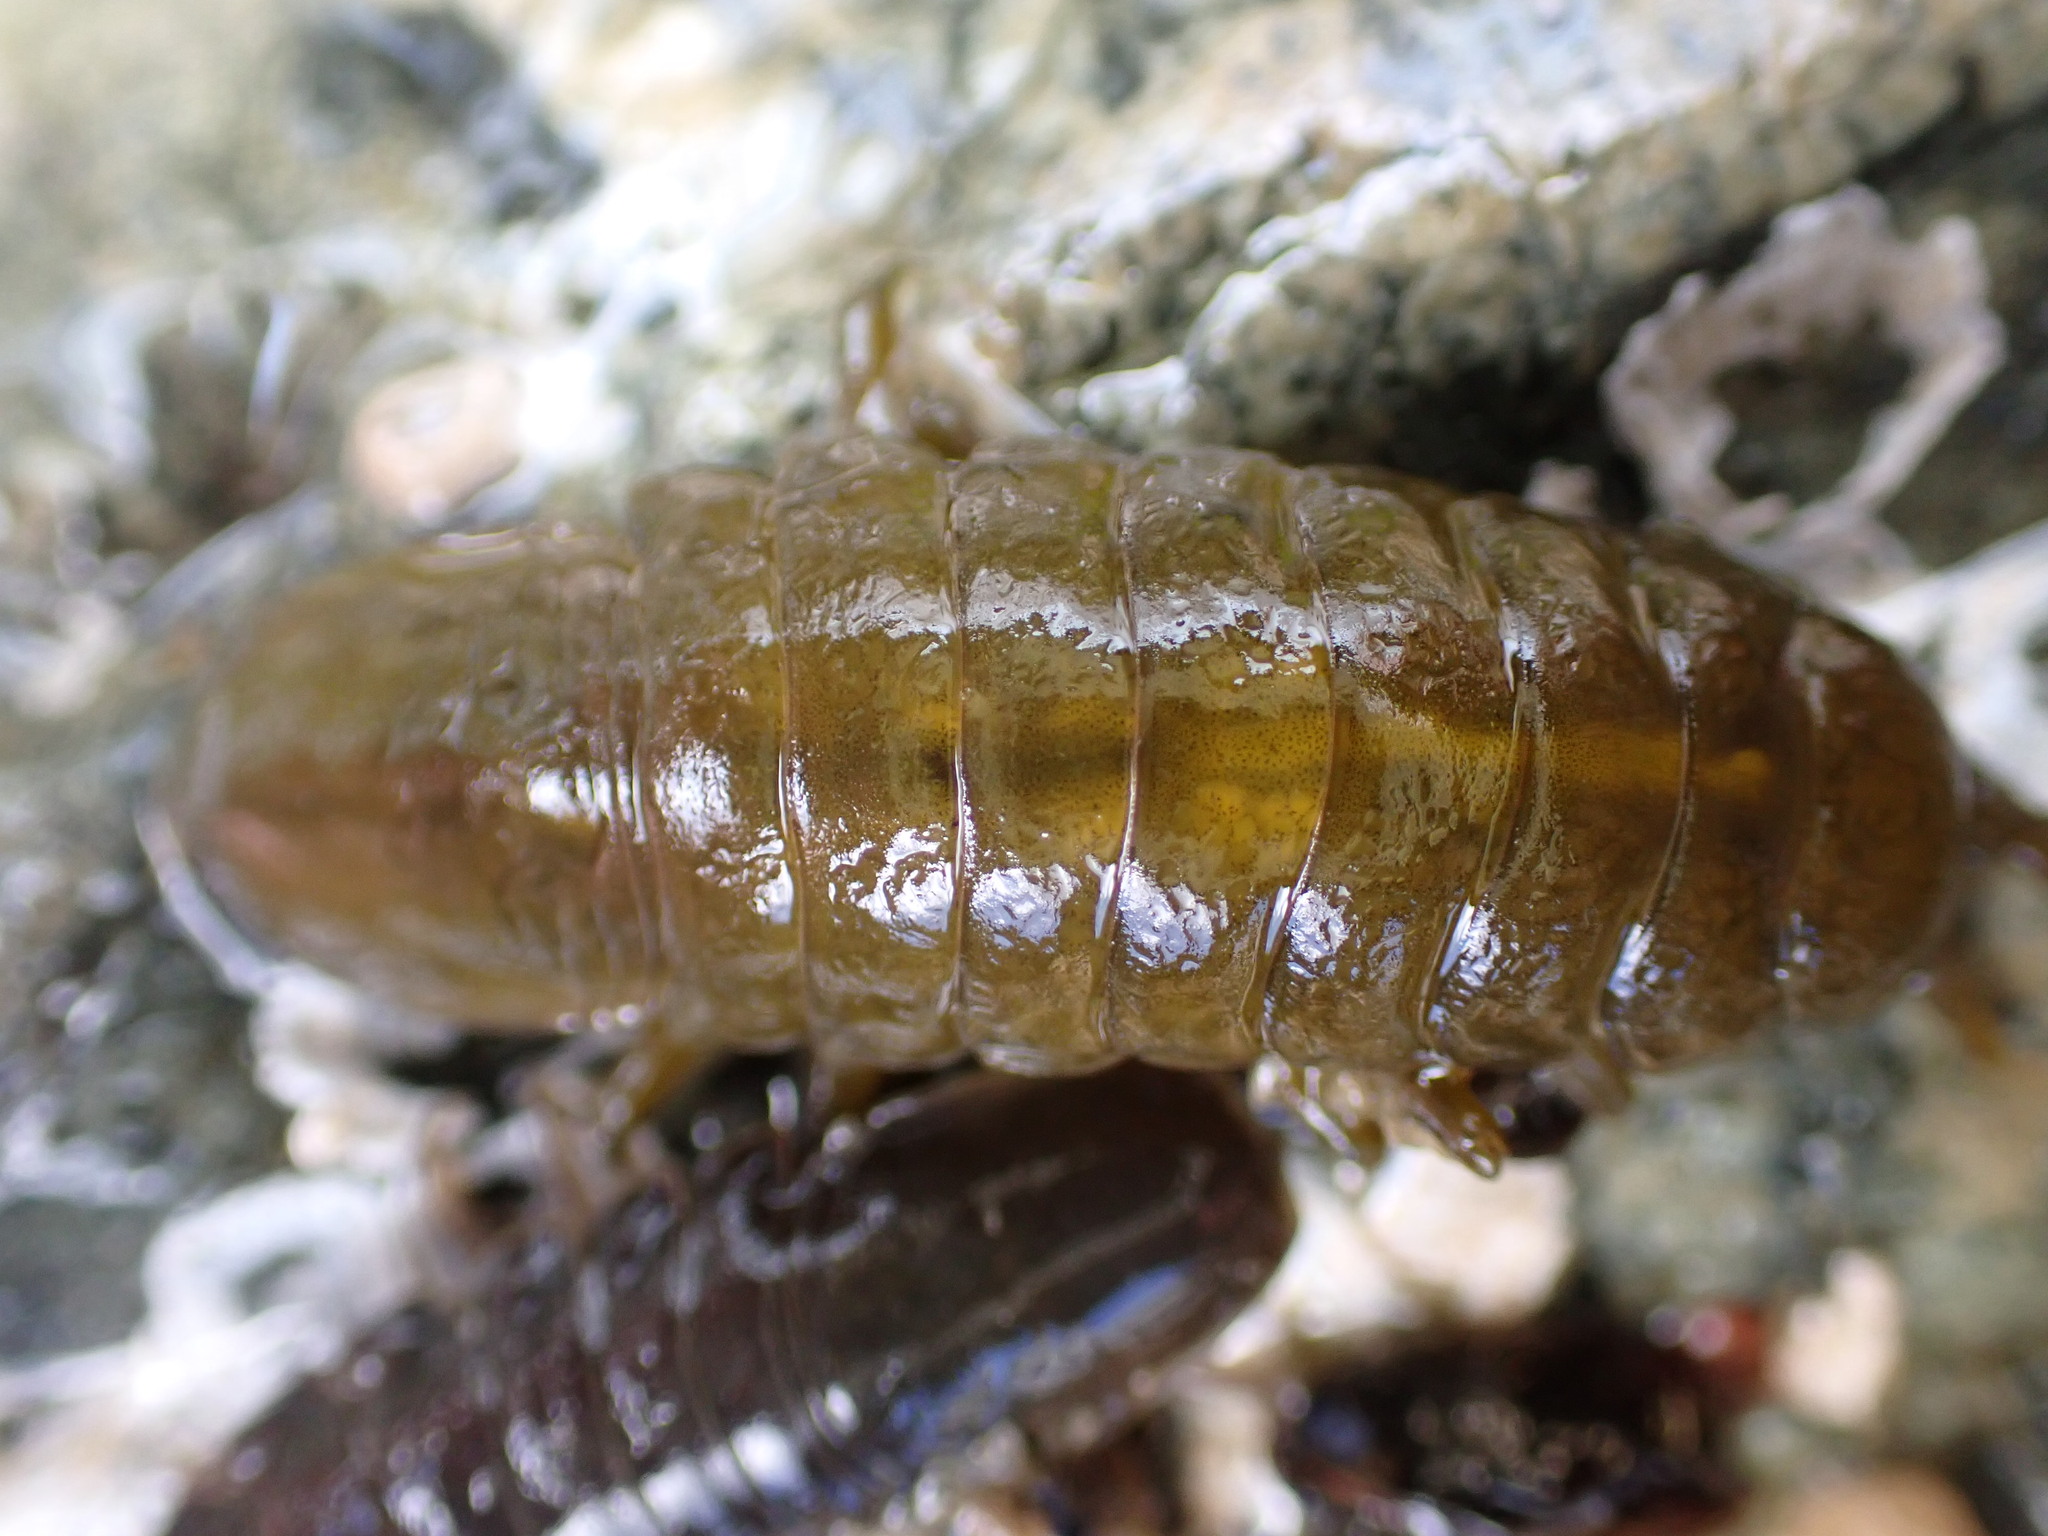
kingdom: Animalia
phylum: Arthropoda
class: Malacostraca
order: Isopoda
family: Idoteidae
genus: Pentidotea
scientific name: Pentidotea wosnesenskii
